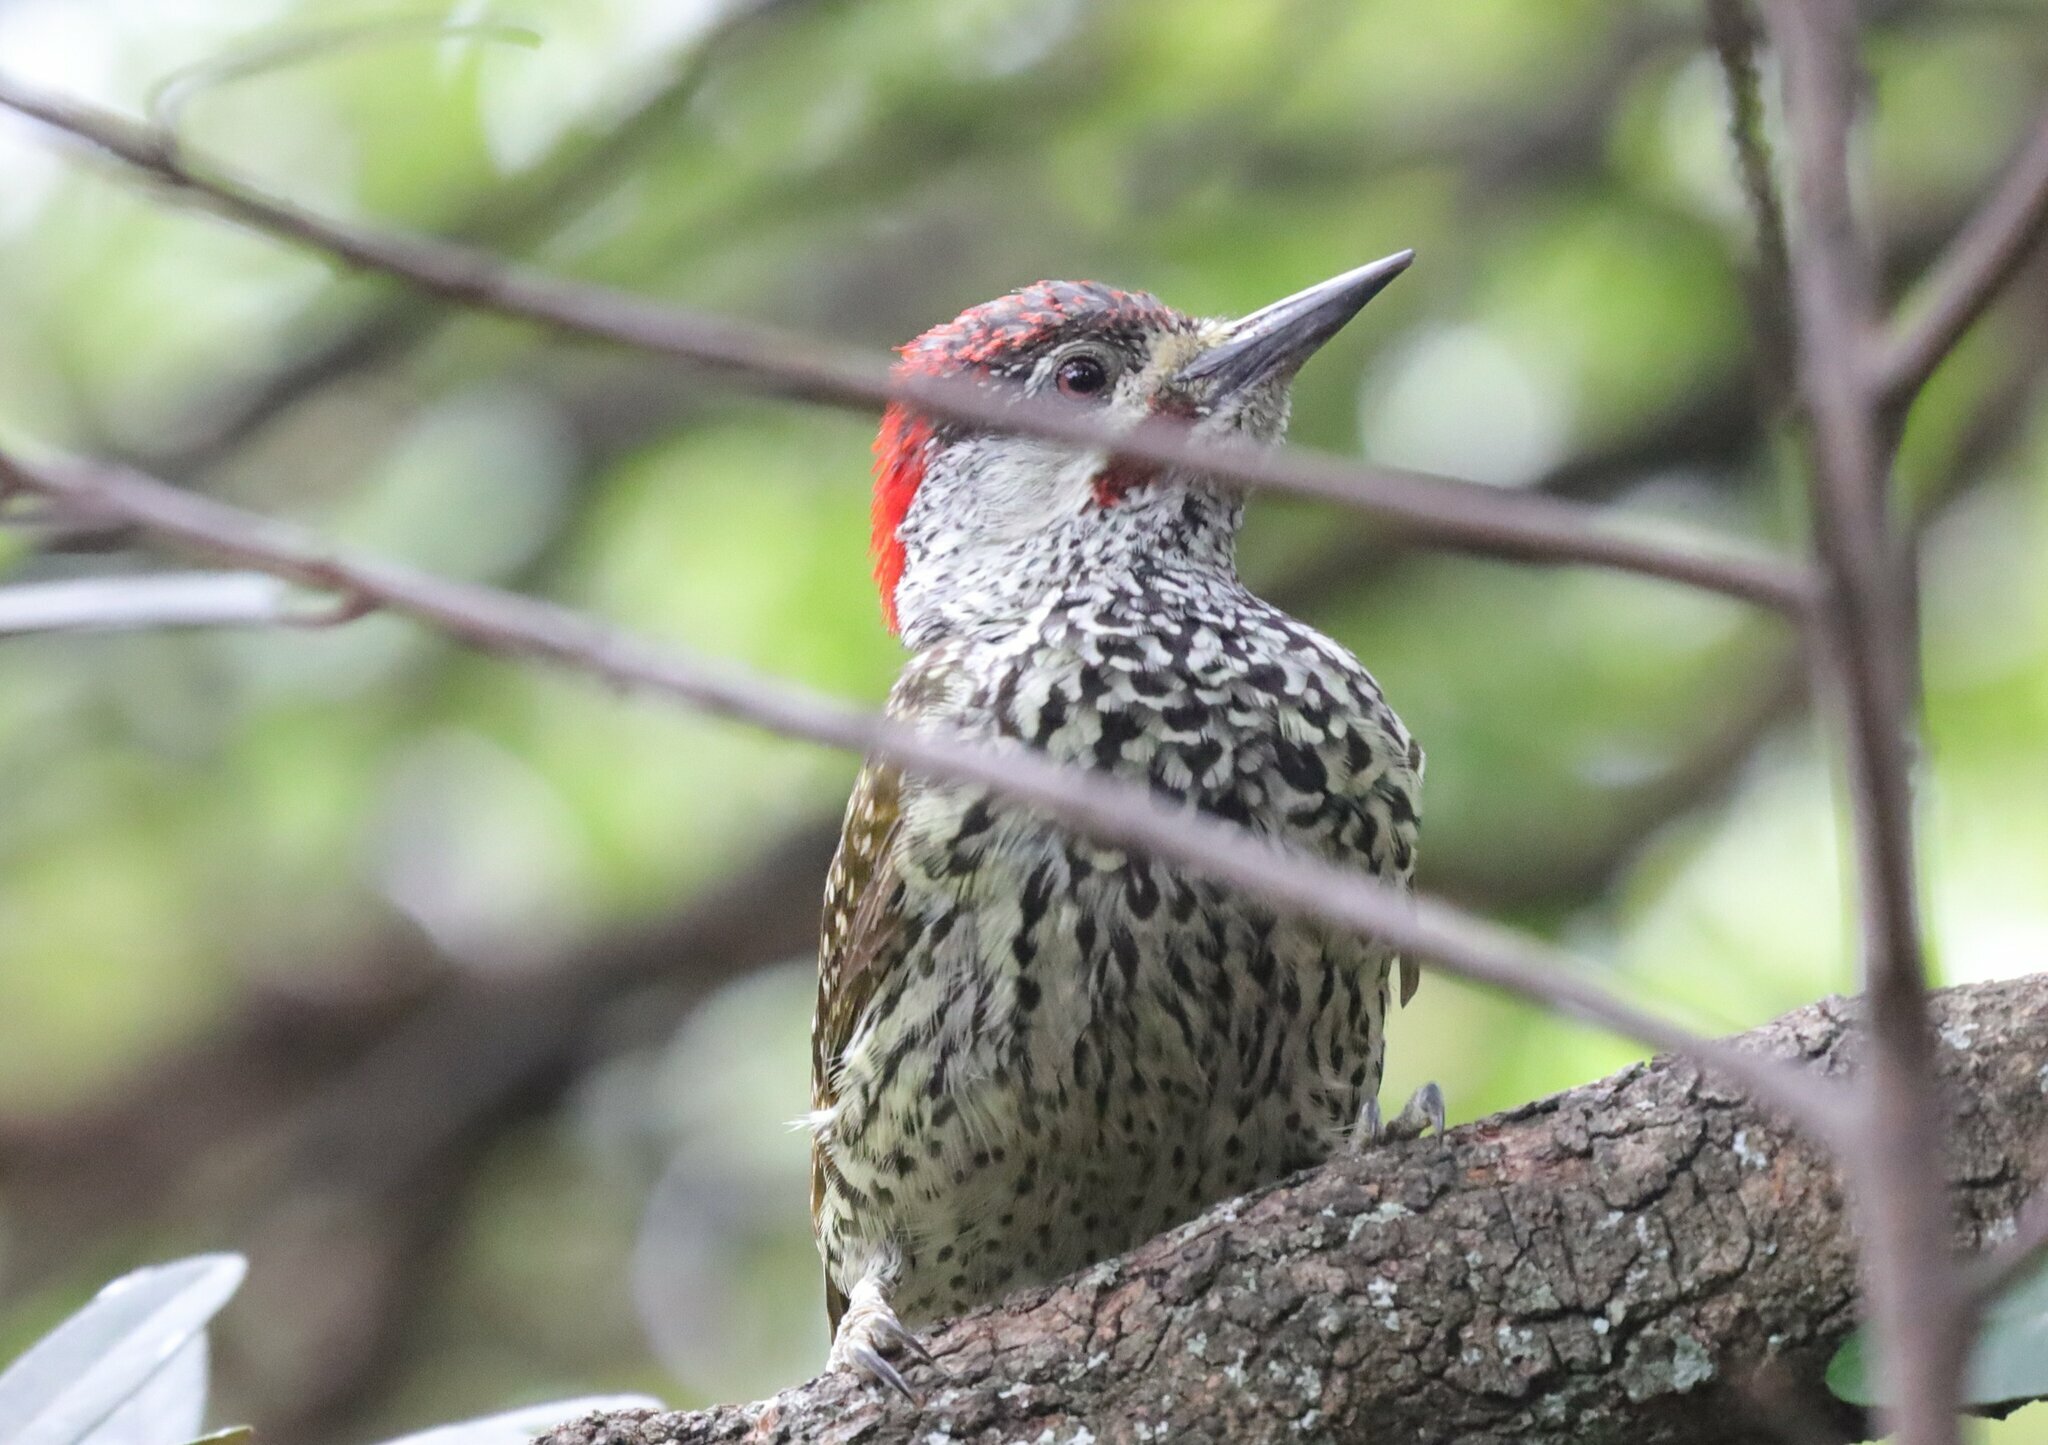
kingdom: Animalia
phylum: Chordata
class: Aves
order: Piciformes
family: Picidae
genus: Campethera
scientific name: Campethera abingoni
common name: Golden-tailed woodpecker
